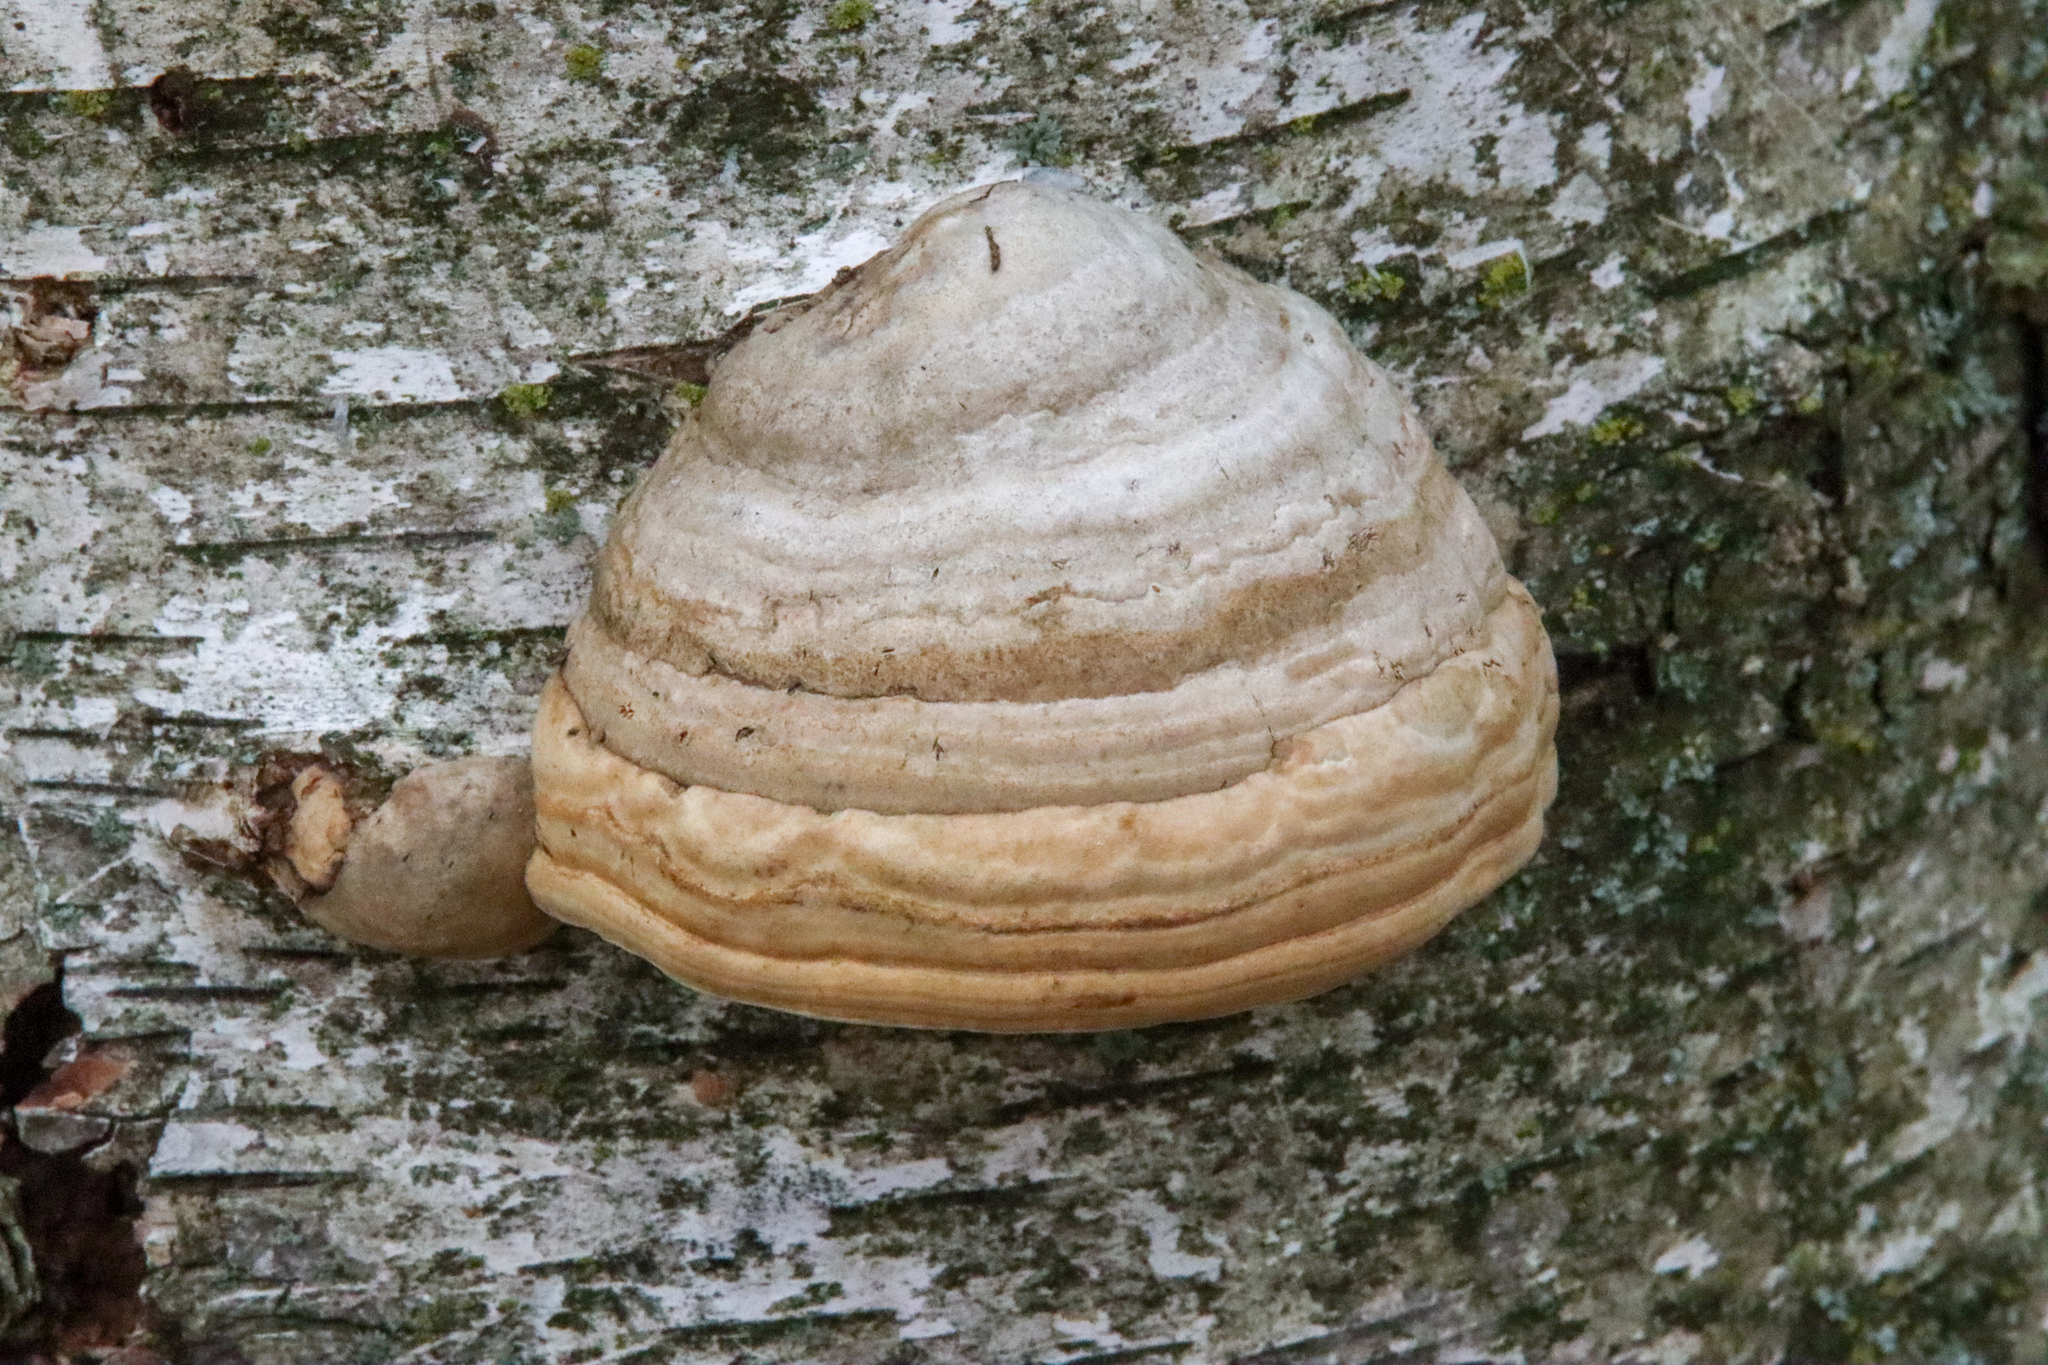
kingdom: Fungi
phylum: Basidiomycota
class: Agaricomycetes
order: Polyporales
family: Polyporaceae
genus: Fomes
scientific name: Fomes fomentarius
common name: Hoof fungus
